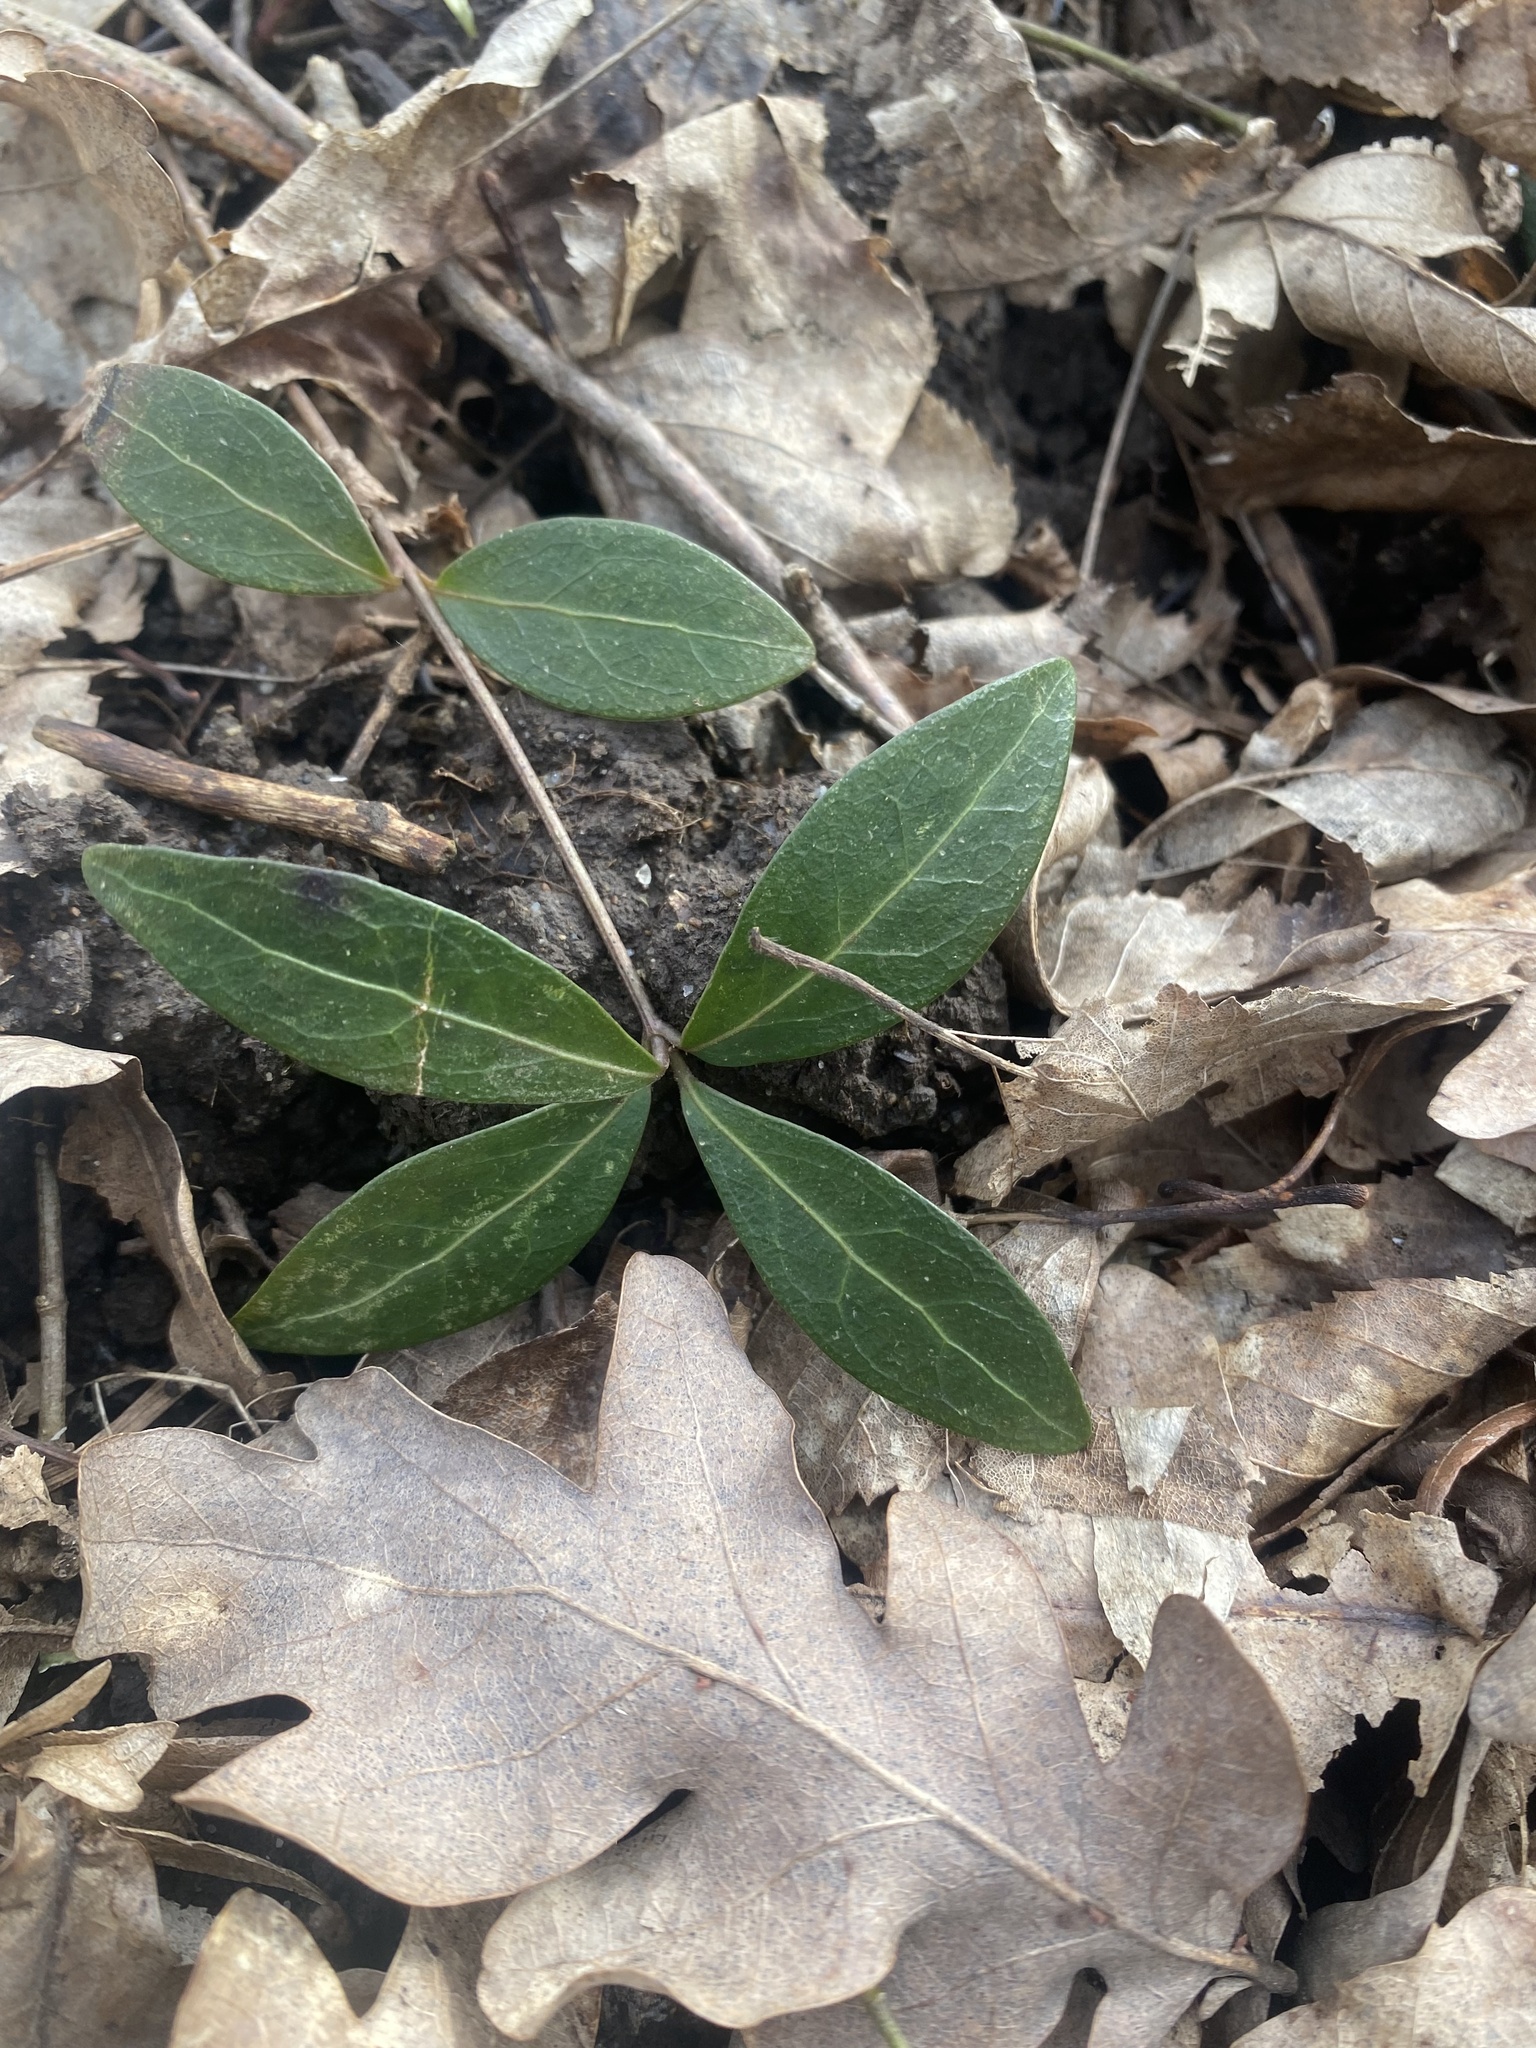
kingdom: Plantae
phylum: Tracheophyta
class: Magnoliopsida
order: Gentianales
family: Apocynaceae
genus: Vinca
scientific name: Vinca minor
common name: Lesser periwinkle
